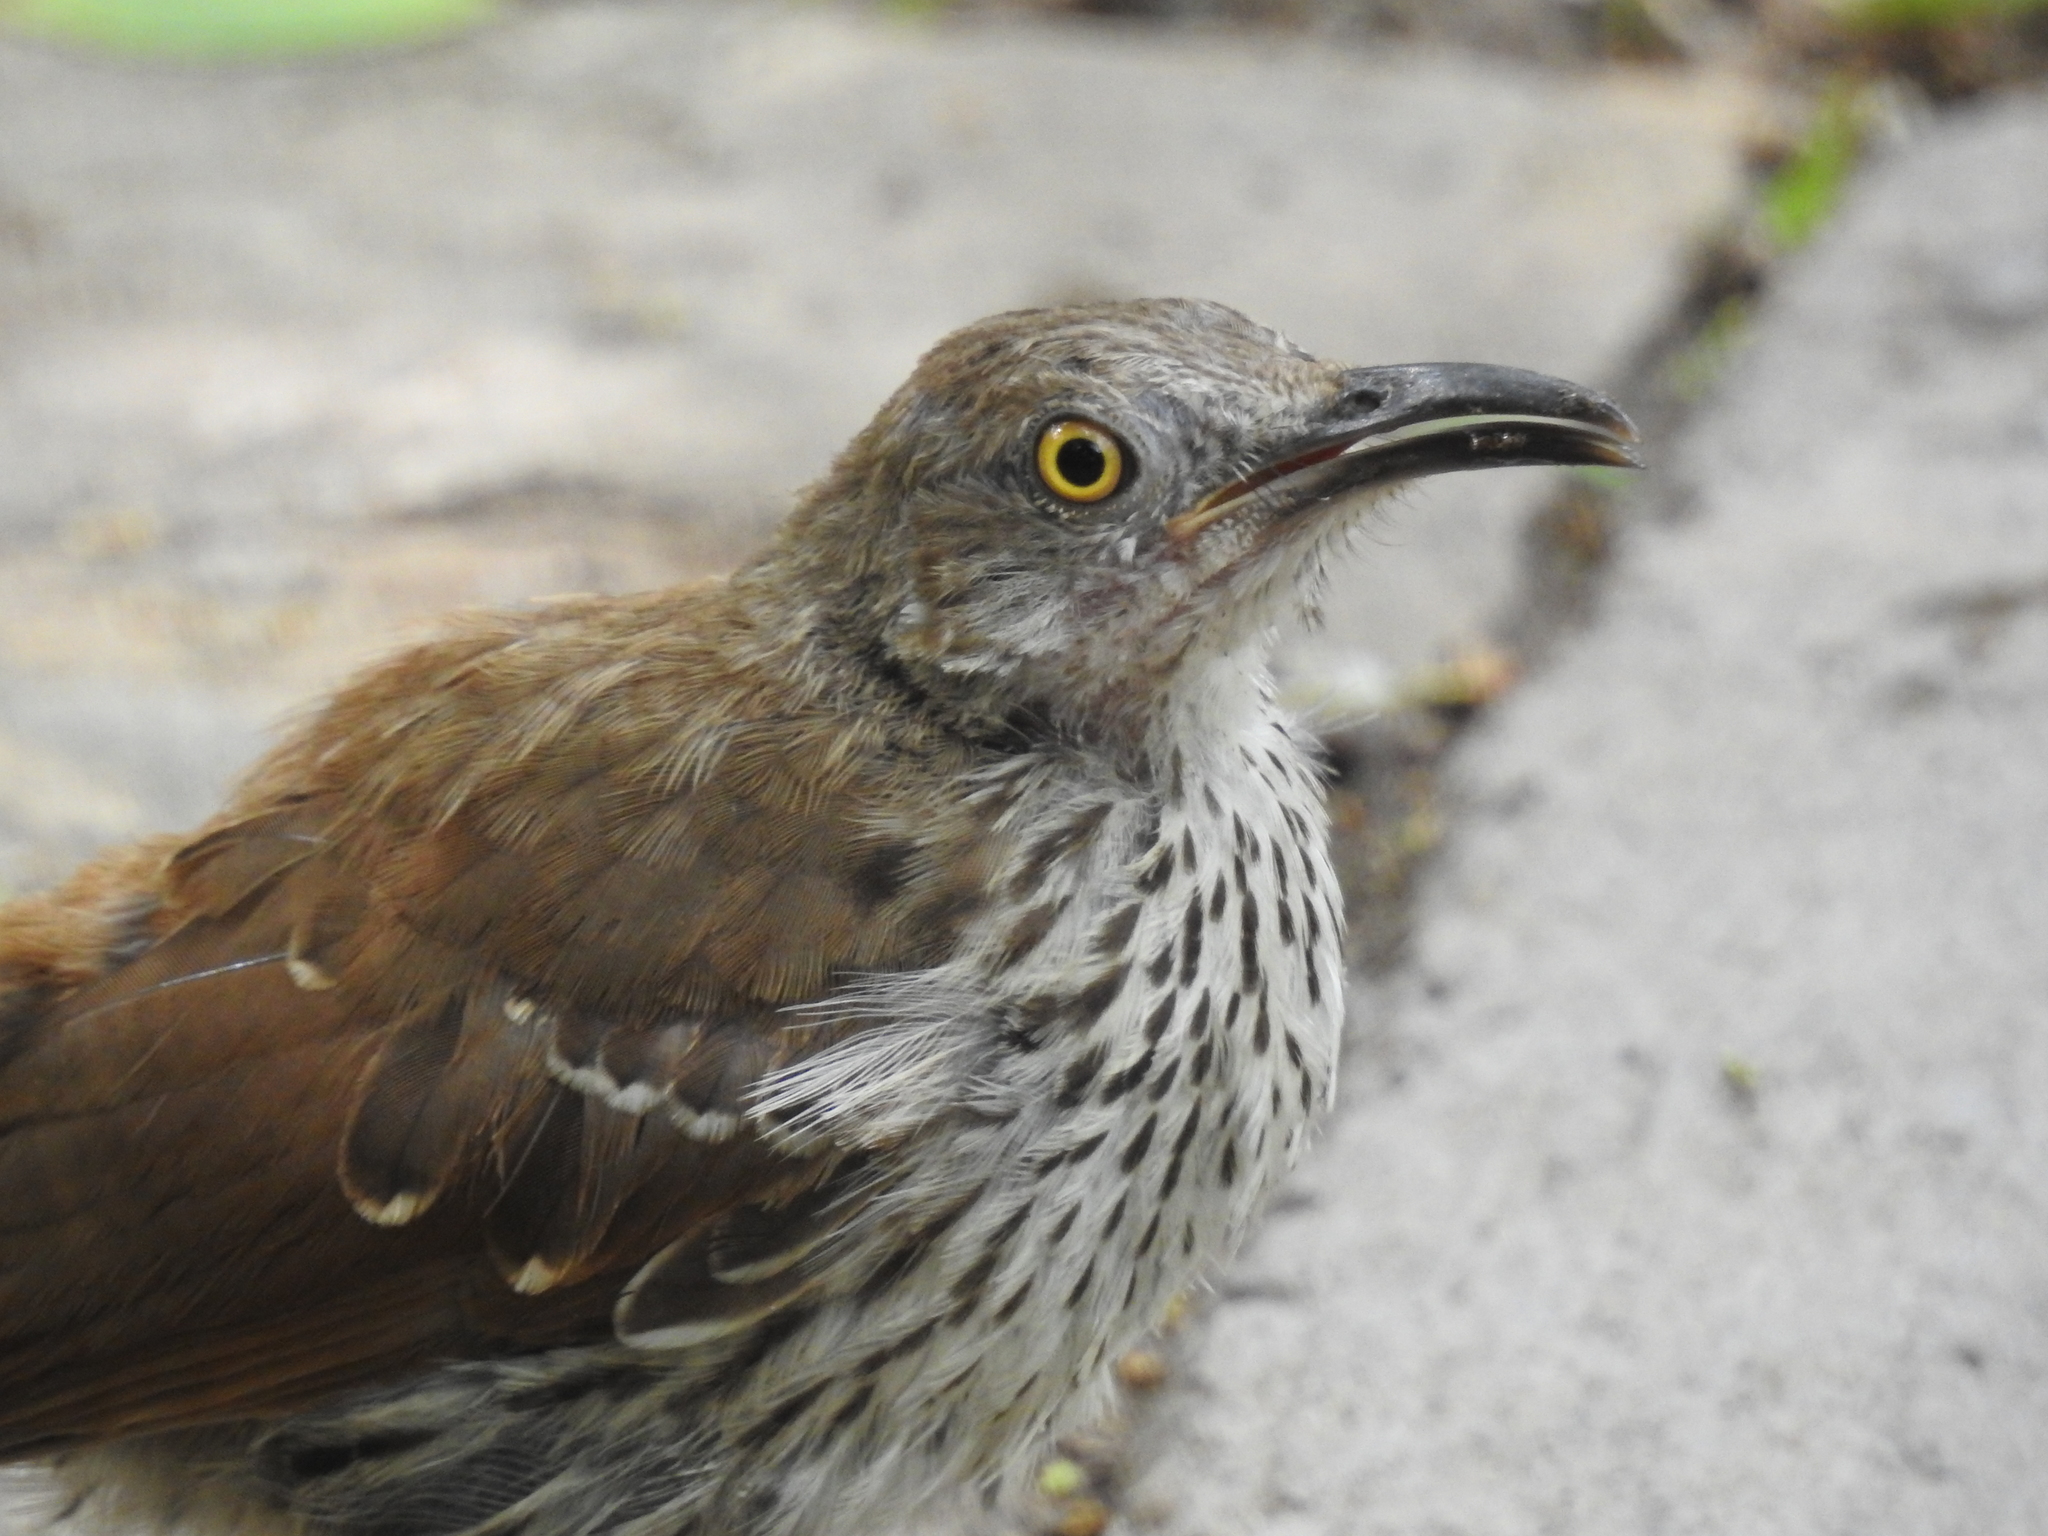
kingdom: Animalia
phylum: Chordata
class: Aves
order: Passeriformes
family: Mimidae
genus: Toxostoma
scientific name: Toxostoma longirostre
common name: Long-billed thrasher
